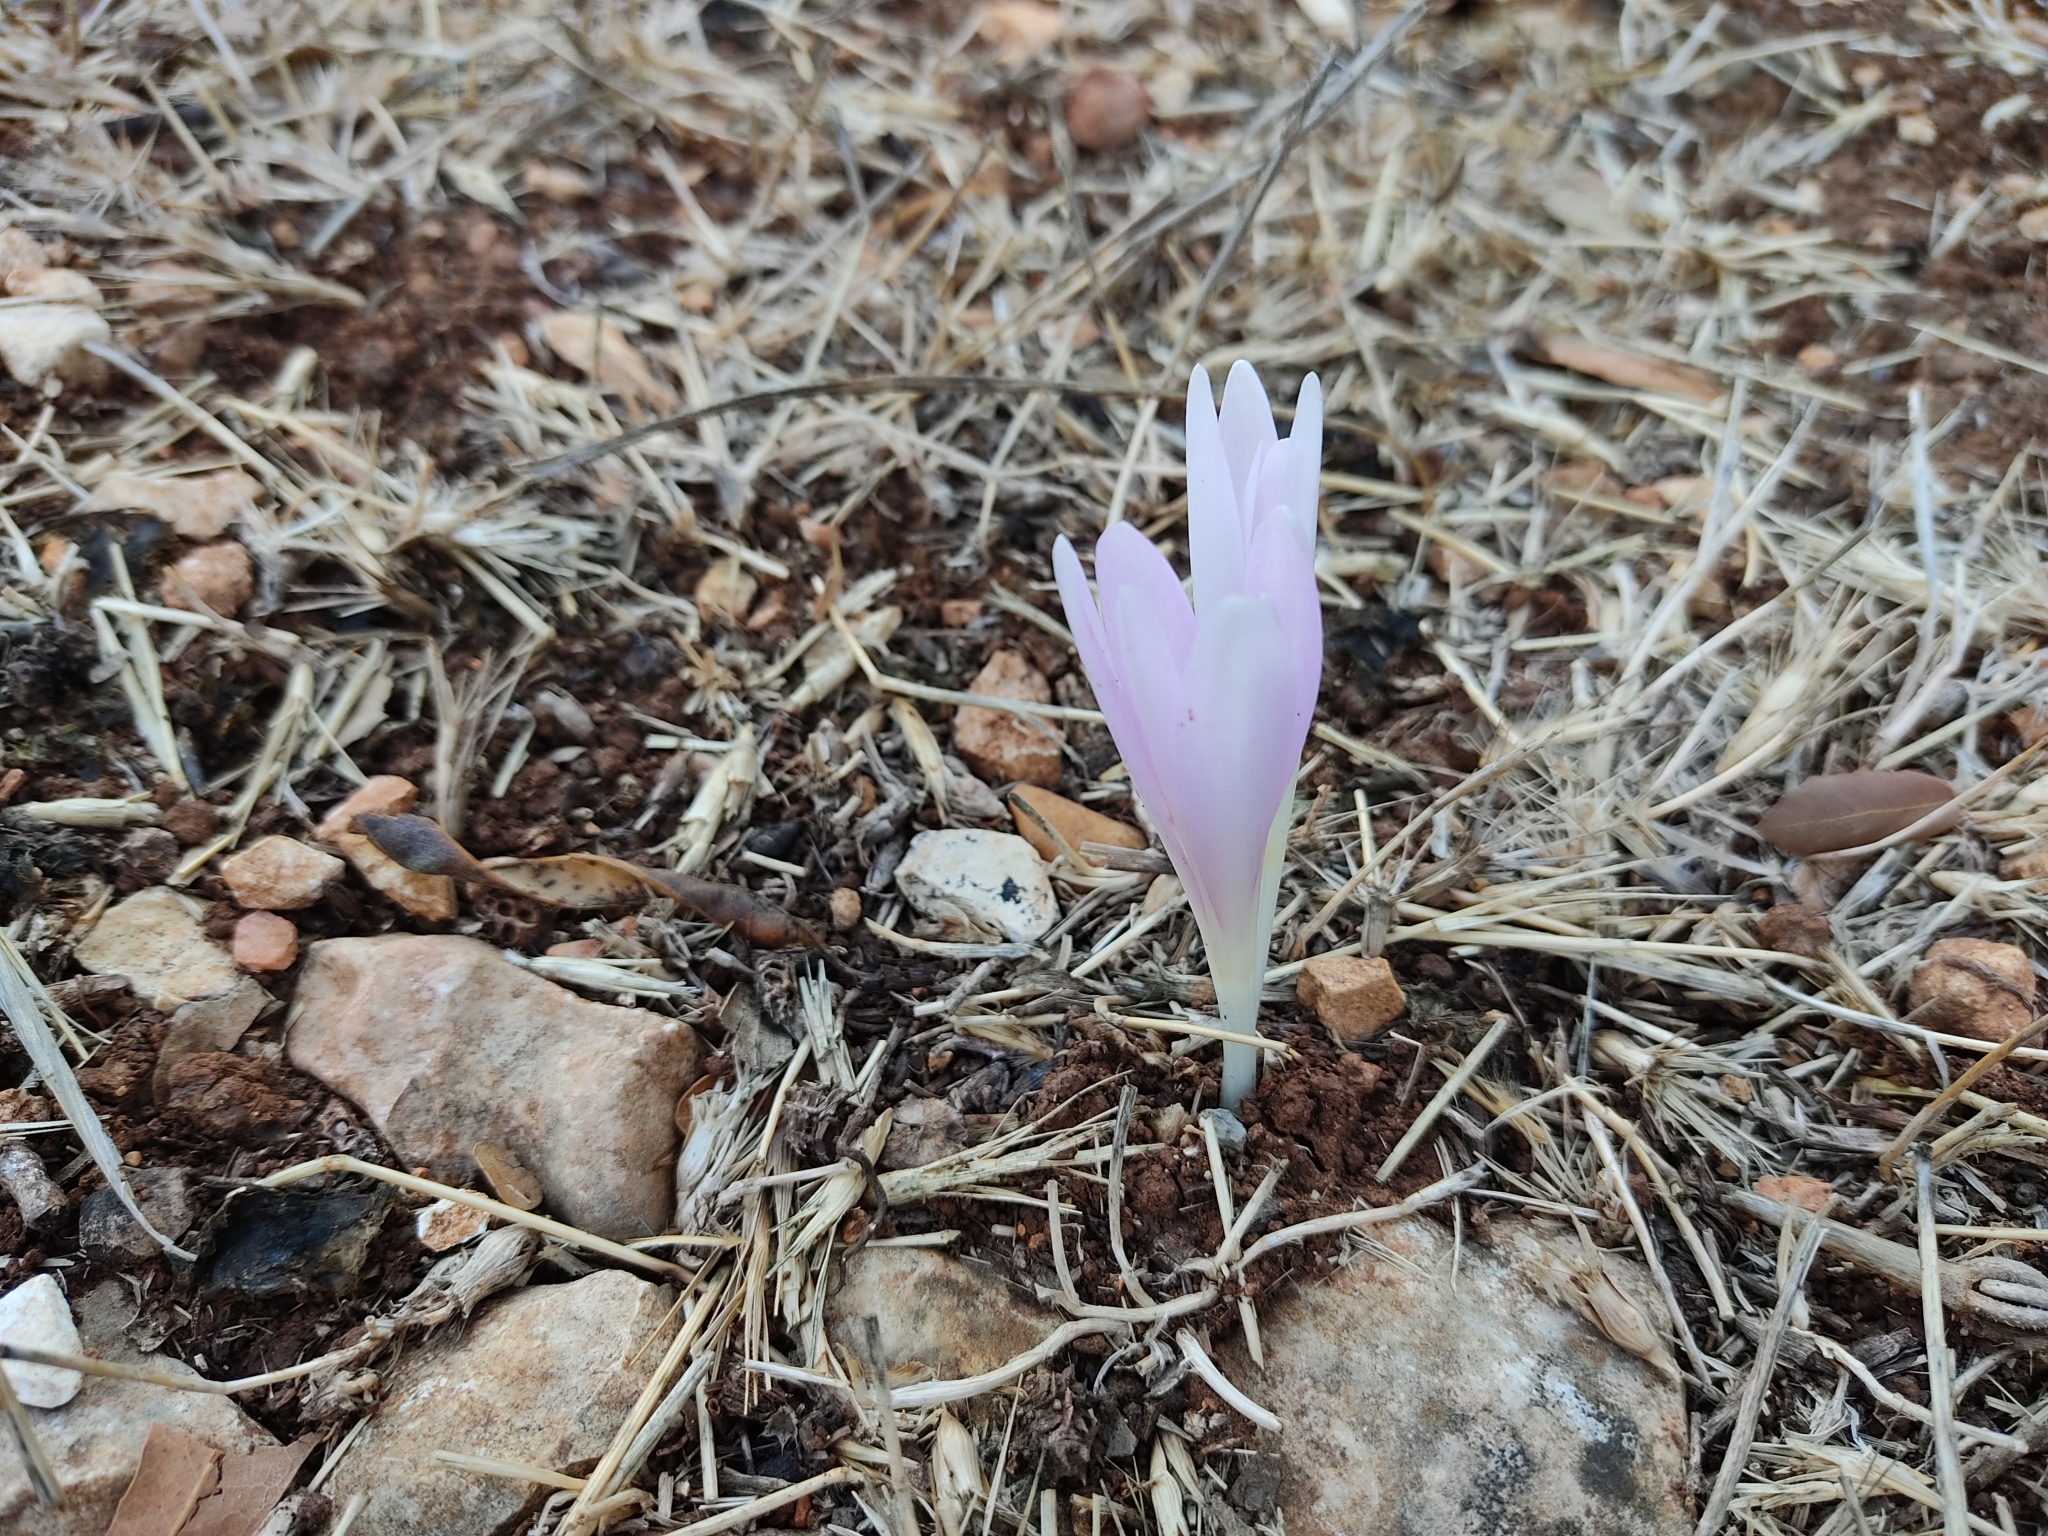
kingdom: Plantae
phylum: Tracheophyta
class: Liliopsida
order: Liliales
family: Colchicaceae
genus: Colchicum
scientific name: Colchicum hierosolymitanum
